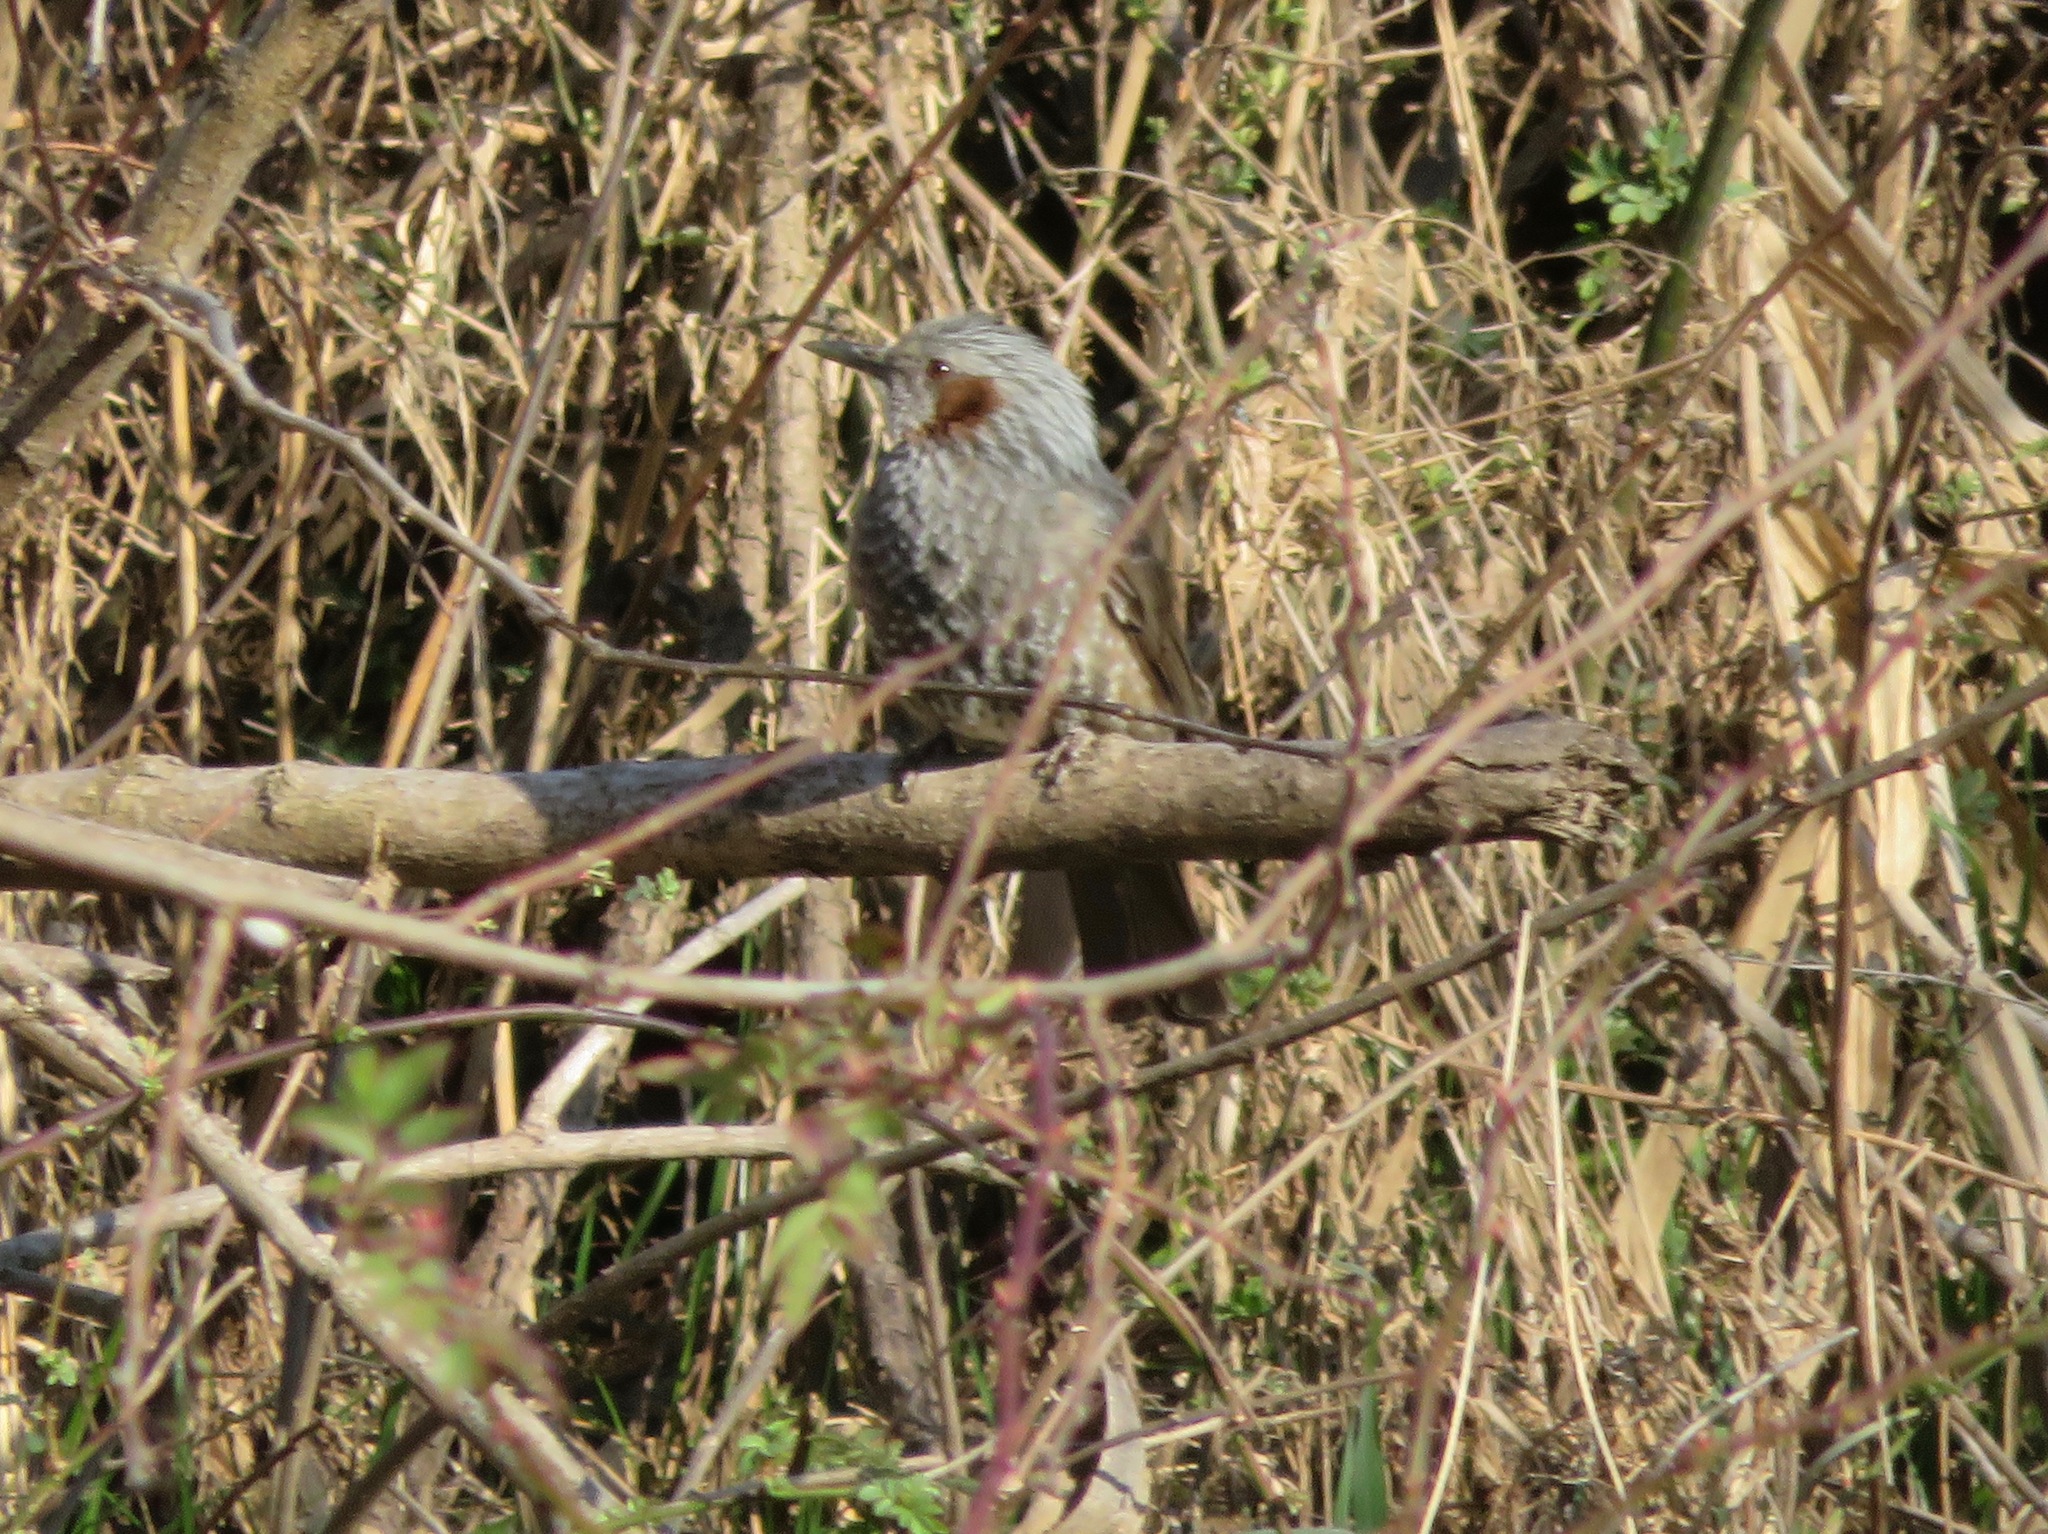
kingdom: Animalia
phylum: Chordata
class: Aves
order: Passeriformes
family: Pycnonotidae
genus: Hypsipetes
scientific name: Hypsipetes amaurotis
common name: Brown-eared bulbul
